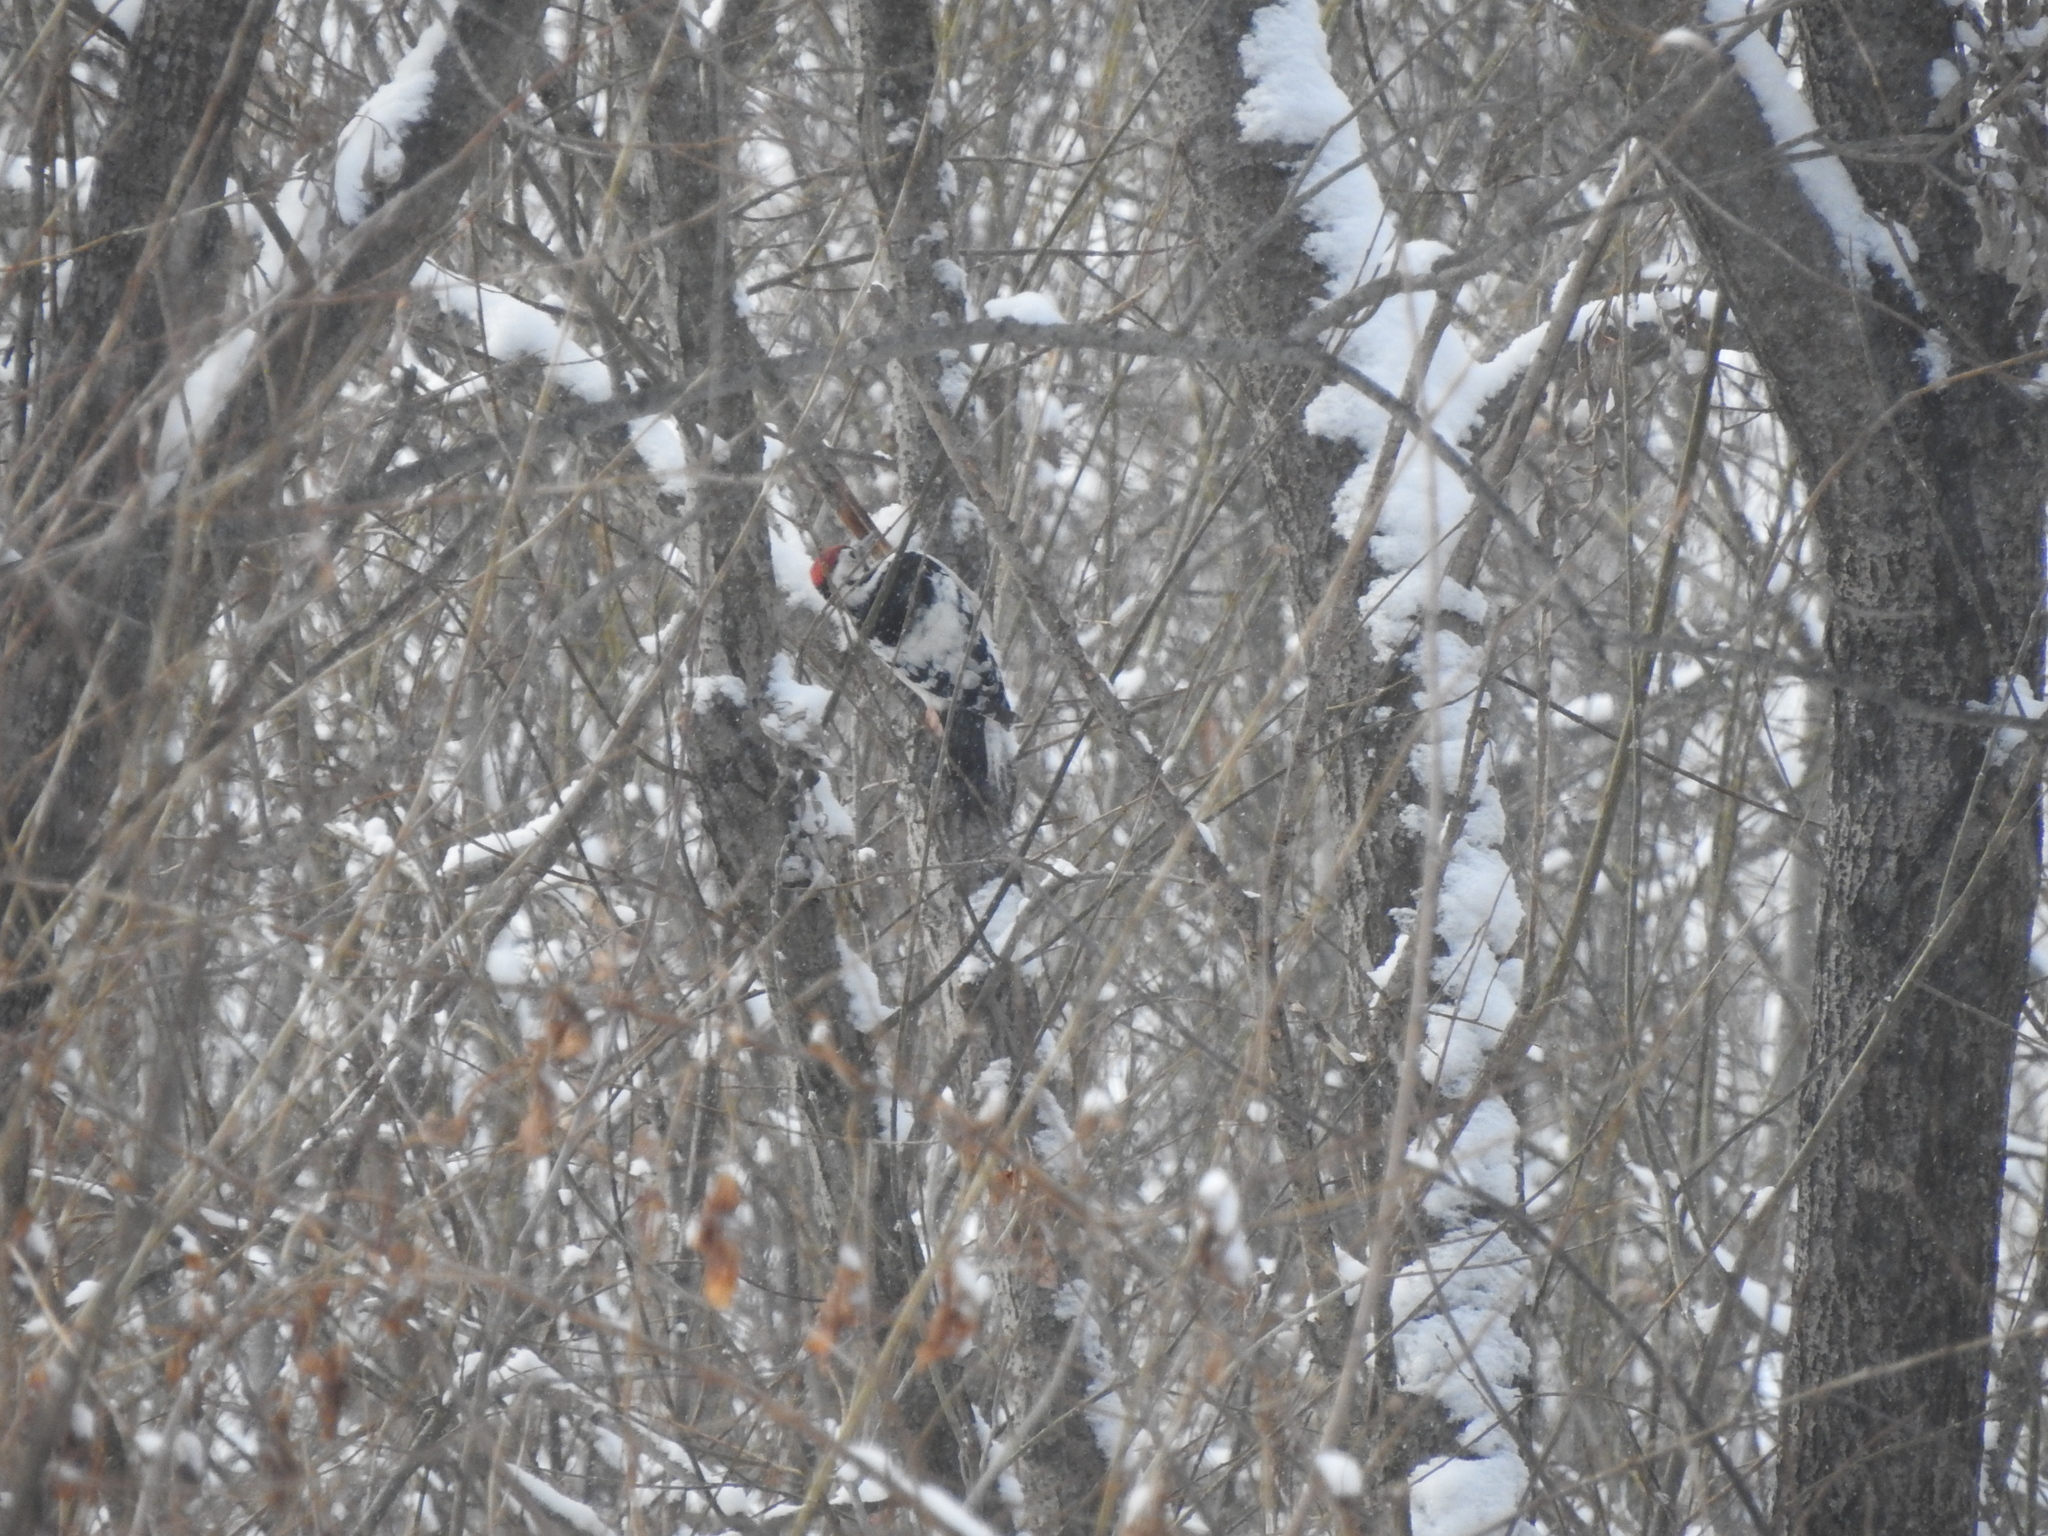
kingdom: Animalia
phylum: Chordata
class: Aves
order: Piciformes
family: Picidae
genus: Dendrocopos
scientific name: Dendrocopos leucotos
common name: White-backed woodpecker
